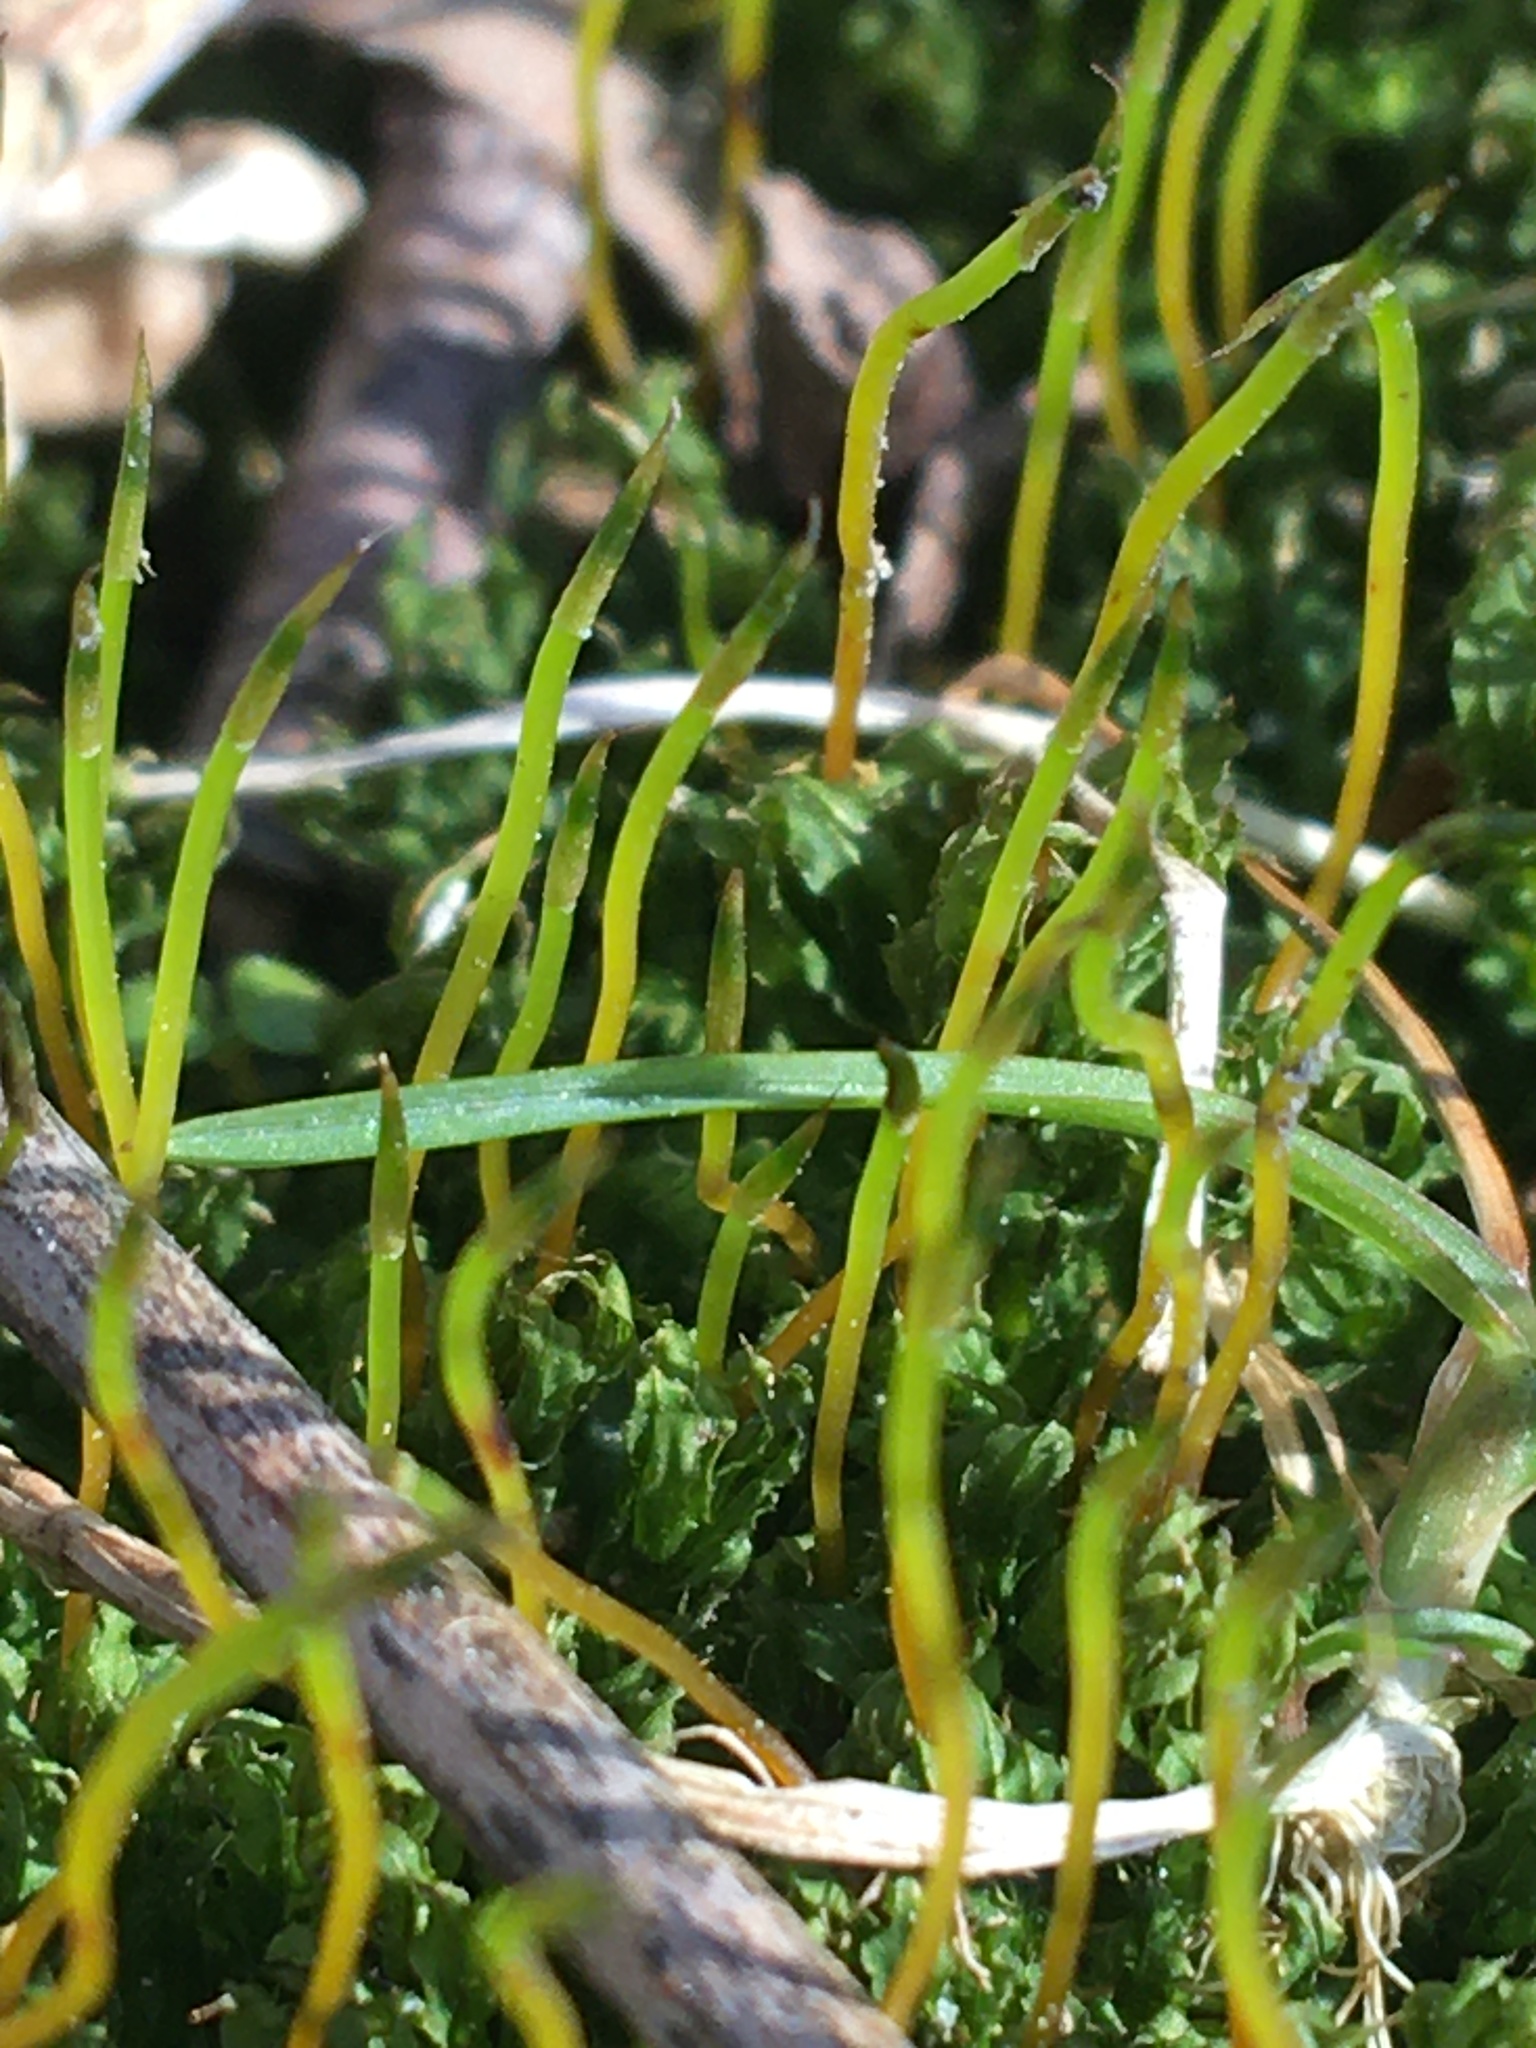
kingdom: Plantae
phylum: Bryophyta
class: Bryopsida
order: Bryales
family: Mniaceae
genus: Plagiomnium
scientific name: Plagiomnium cuspidatum
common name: Woodsy leafy moss
